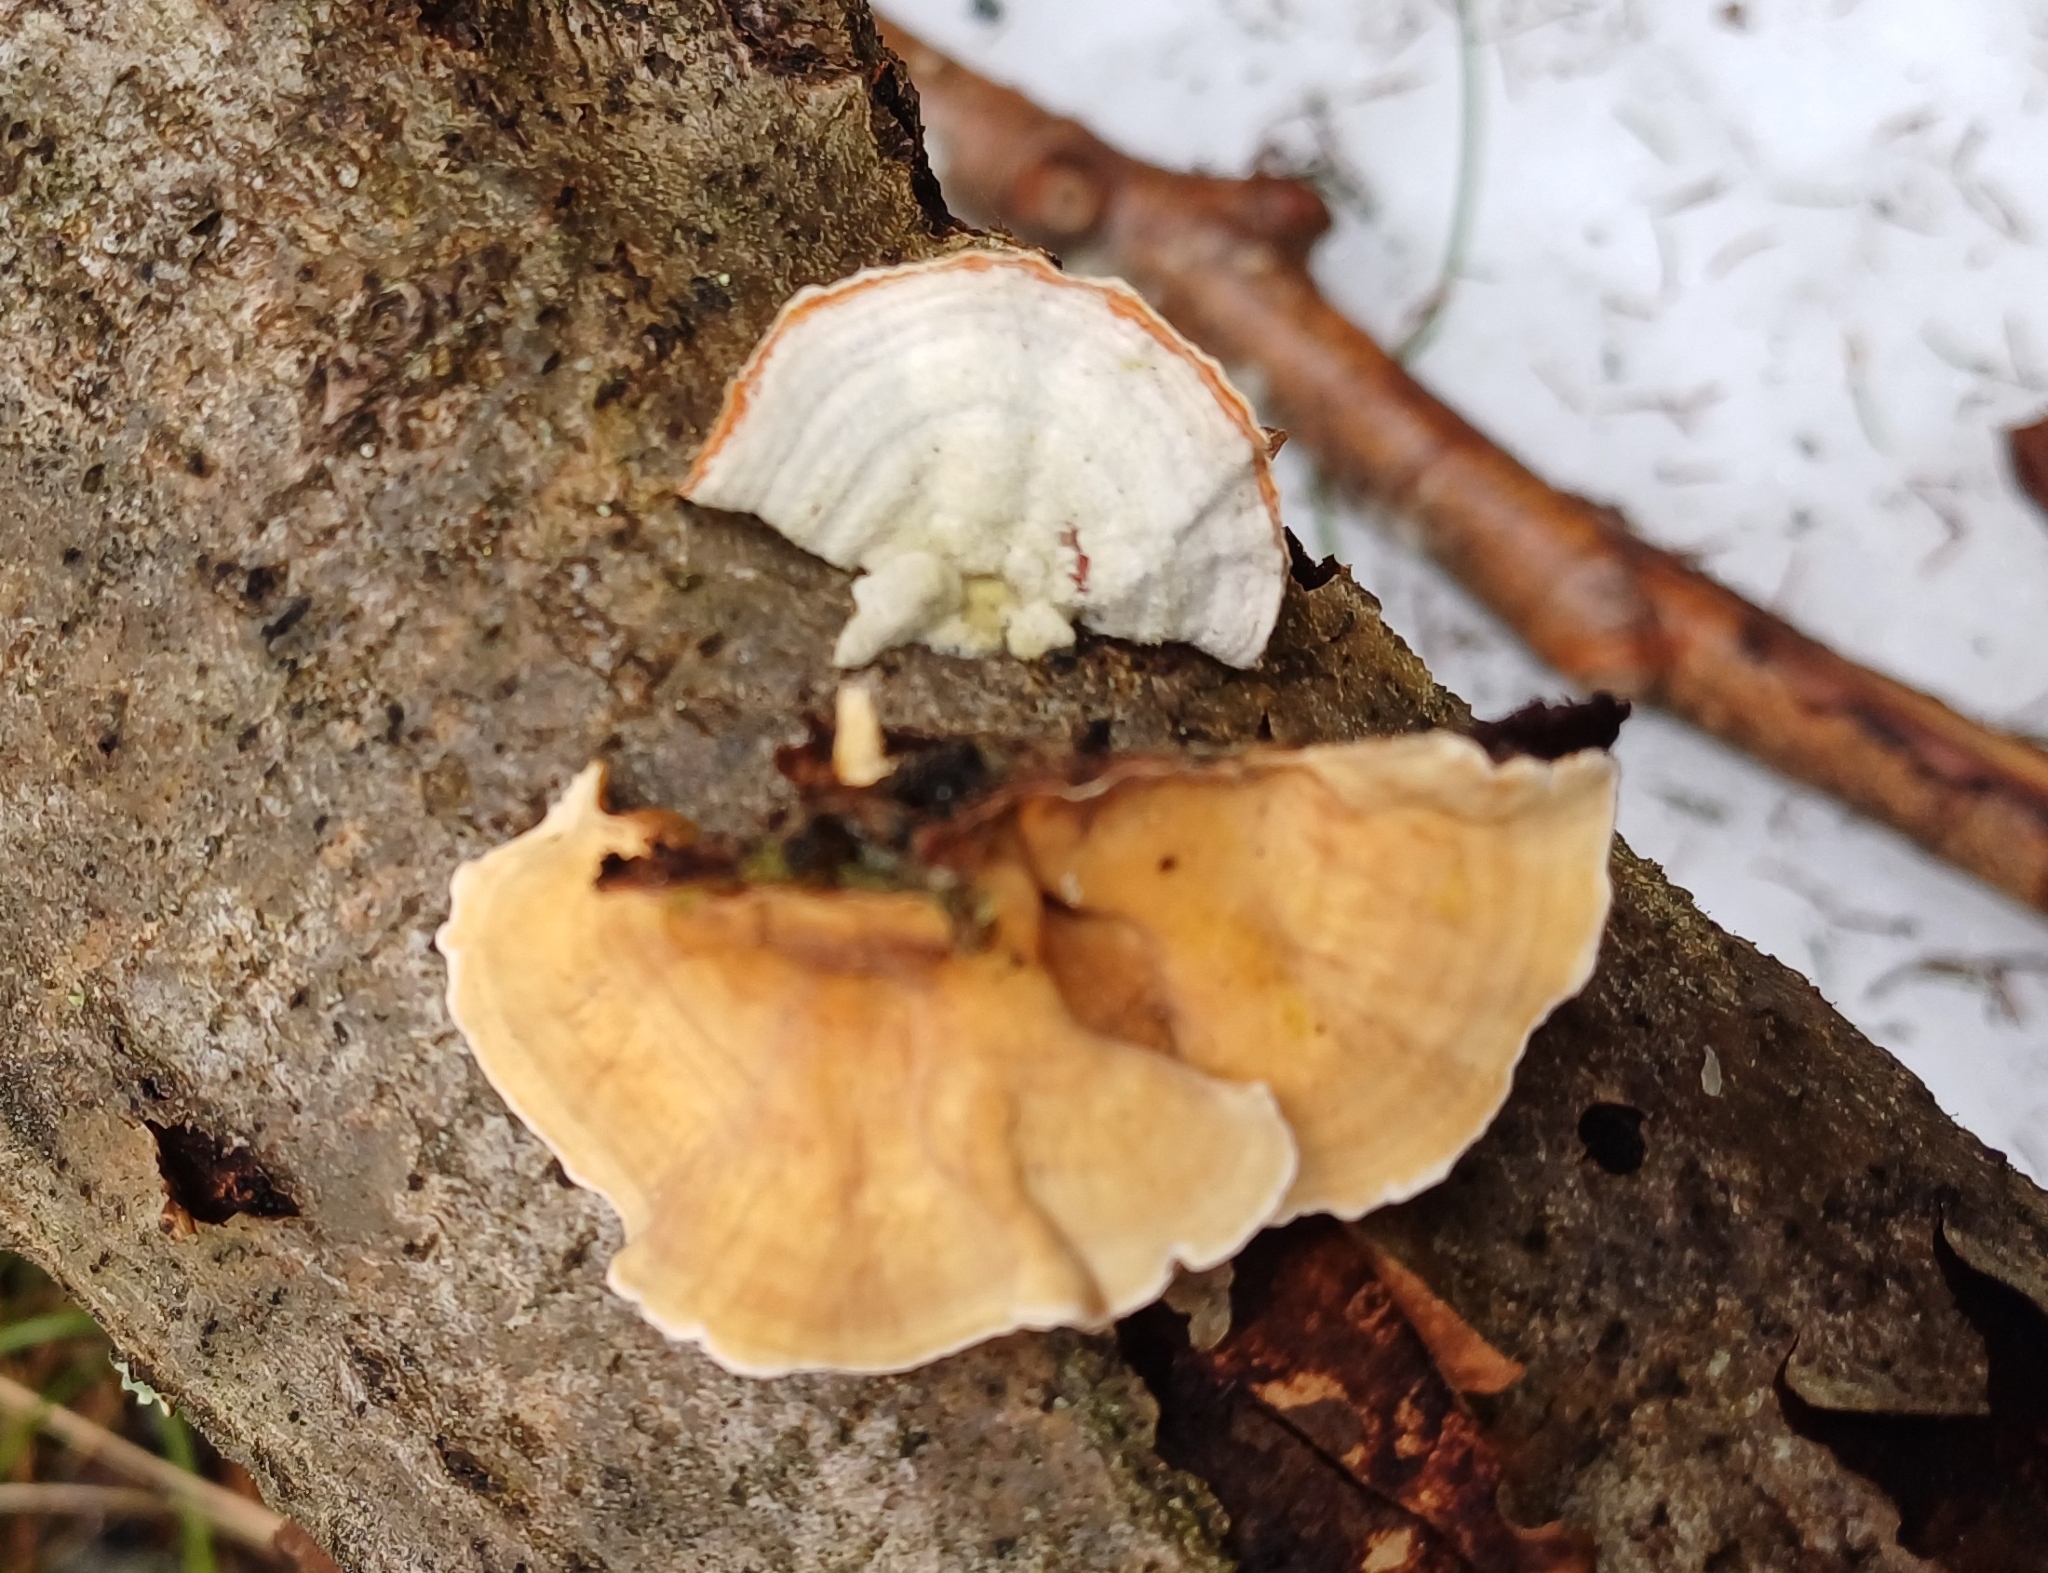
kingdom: Fungi
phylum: Basidiomycota
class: Agaricomycetes
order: Russulales
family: Stereaceae
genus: Stereum
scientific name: Stereum subtomentosum
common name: Yellowing curtain crust
